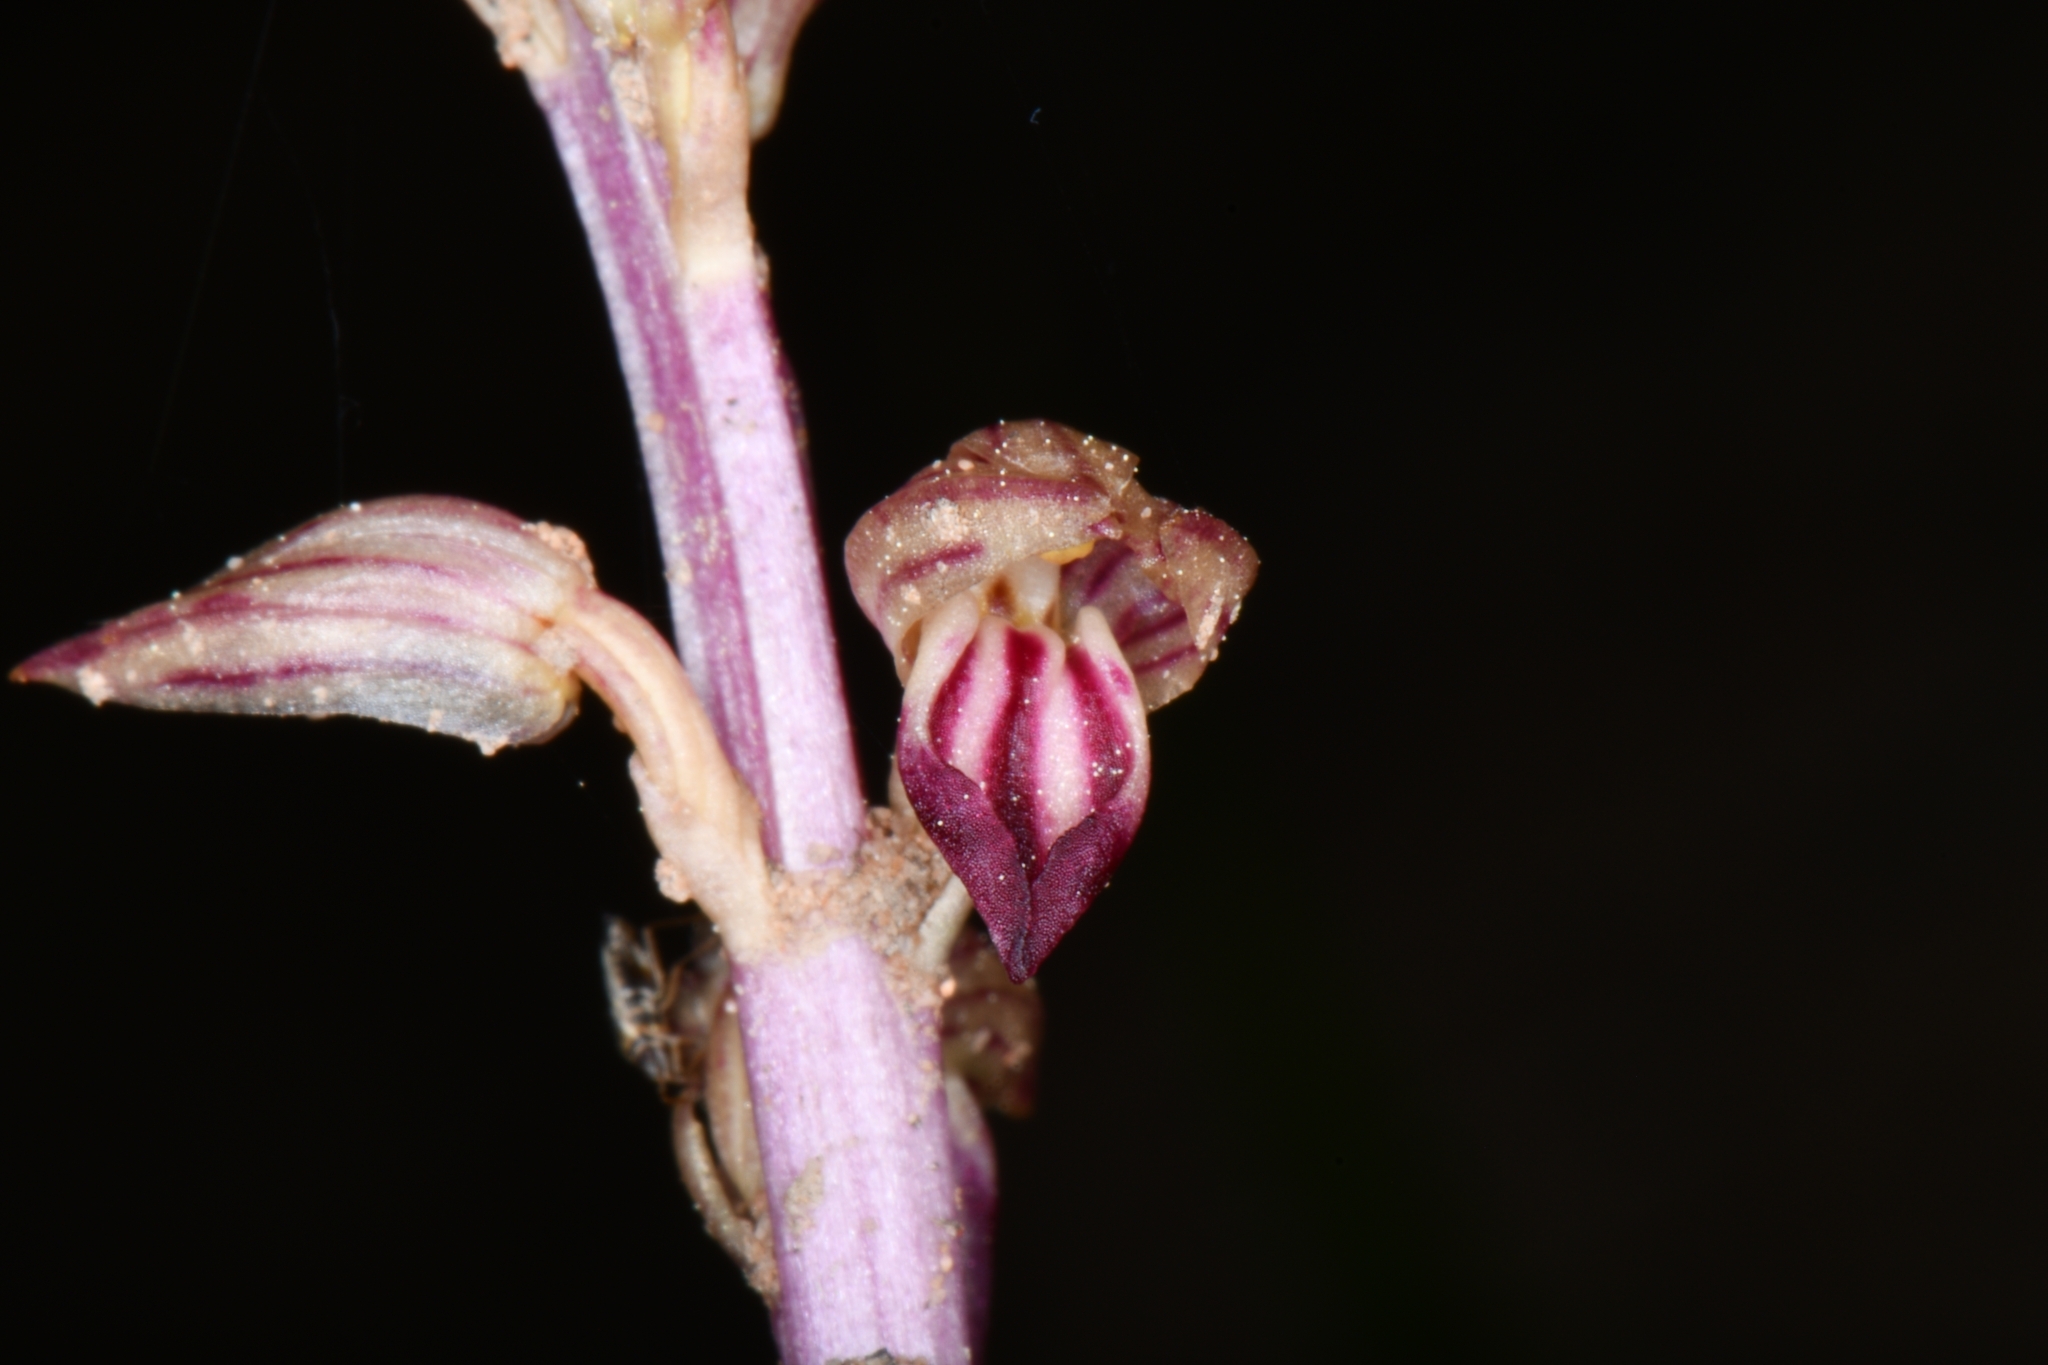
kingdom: Plantae
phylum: Tracheophyta
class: Liliopsida
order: Asparagales
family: Orchidaceae
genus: Corallorhiza
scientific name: Corallorhiza striata
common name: Hooded coralroot
